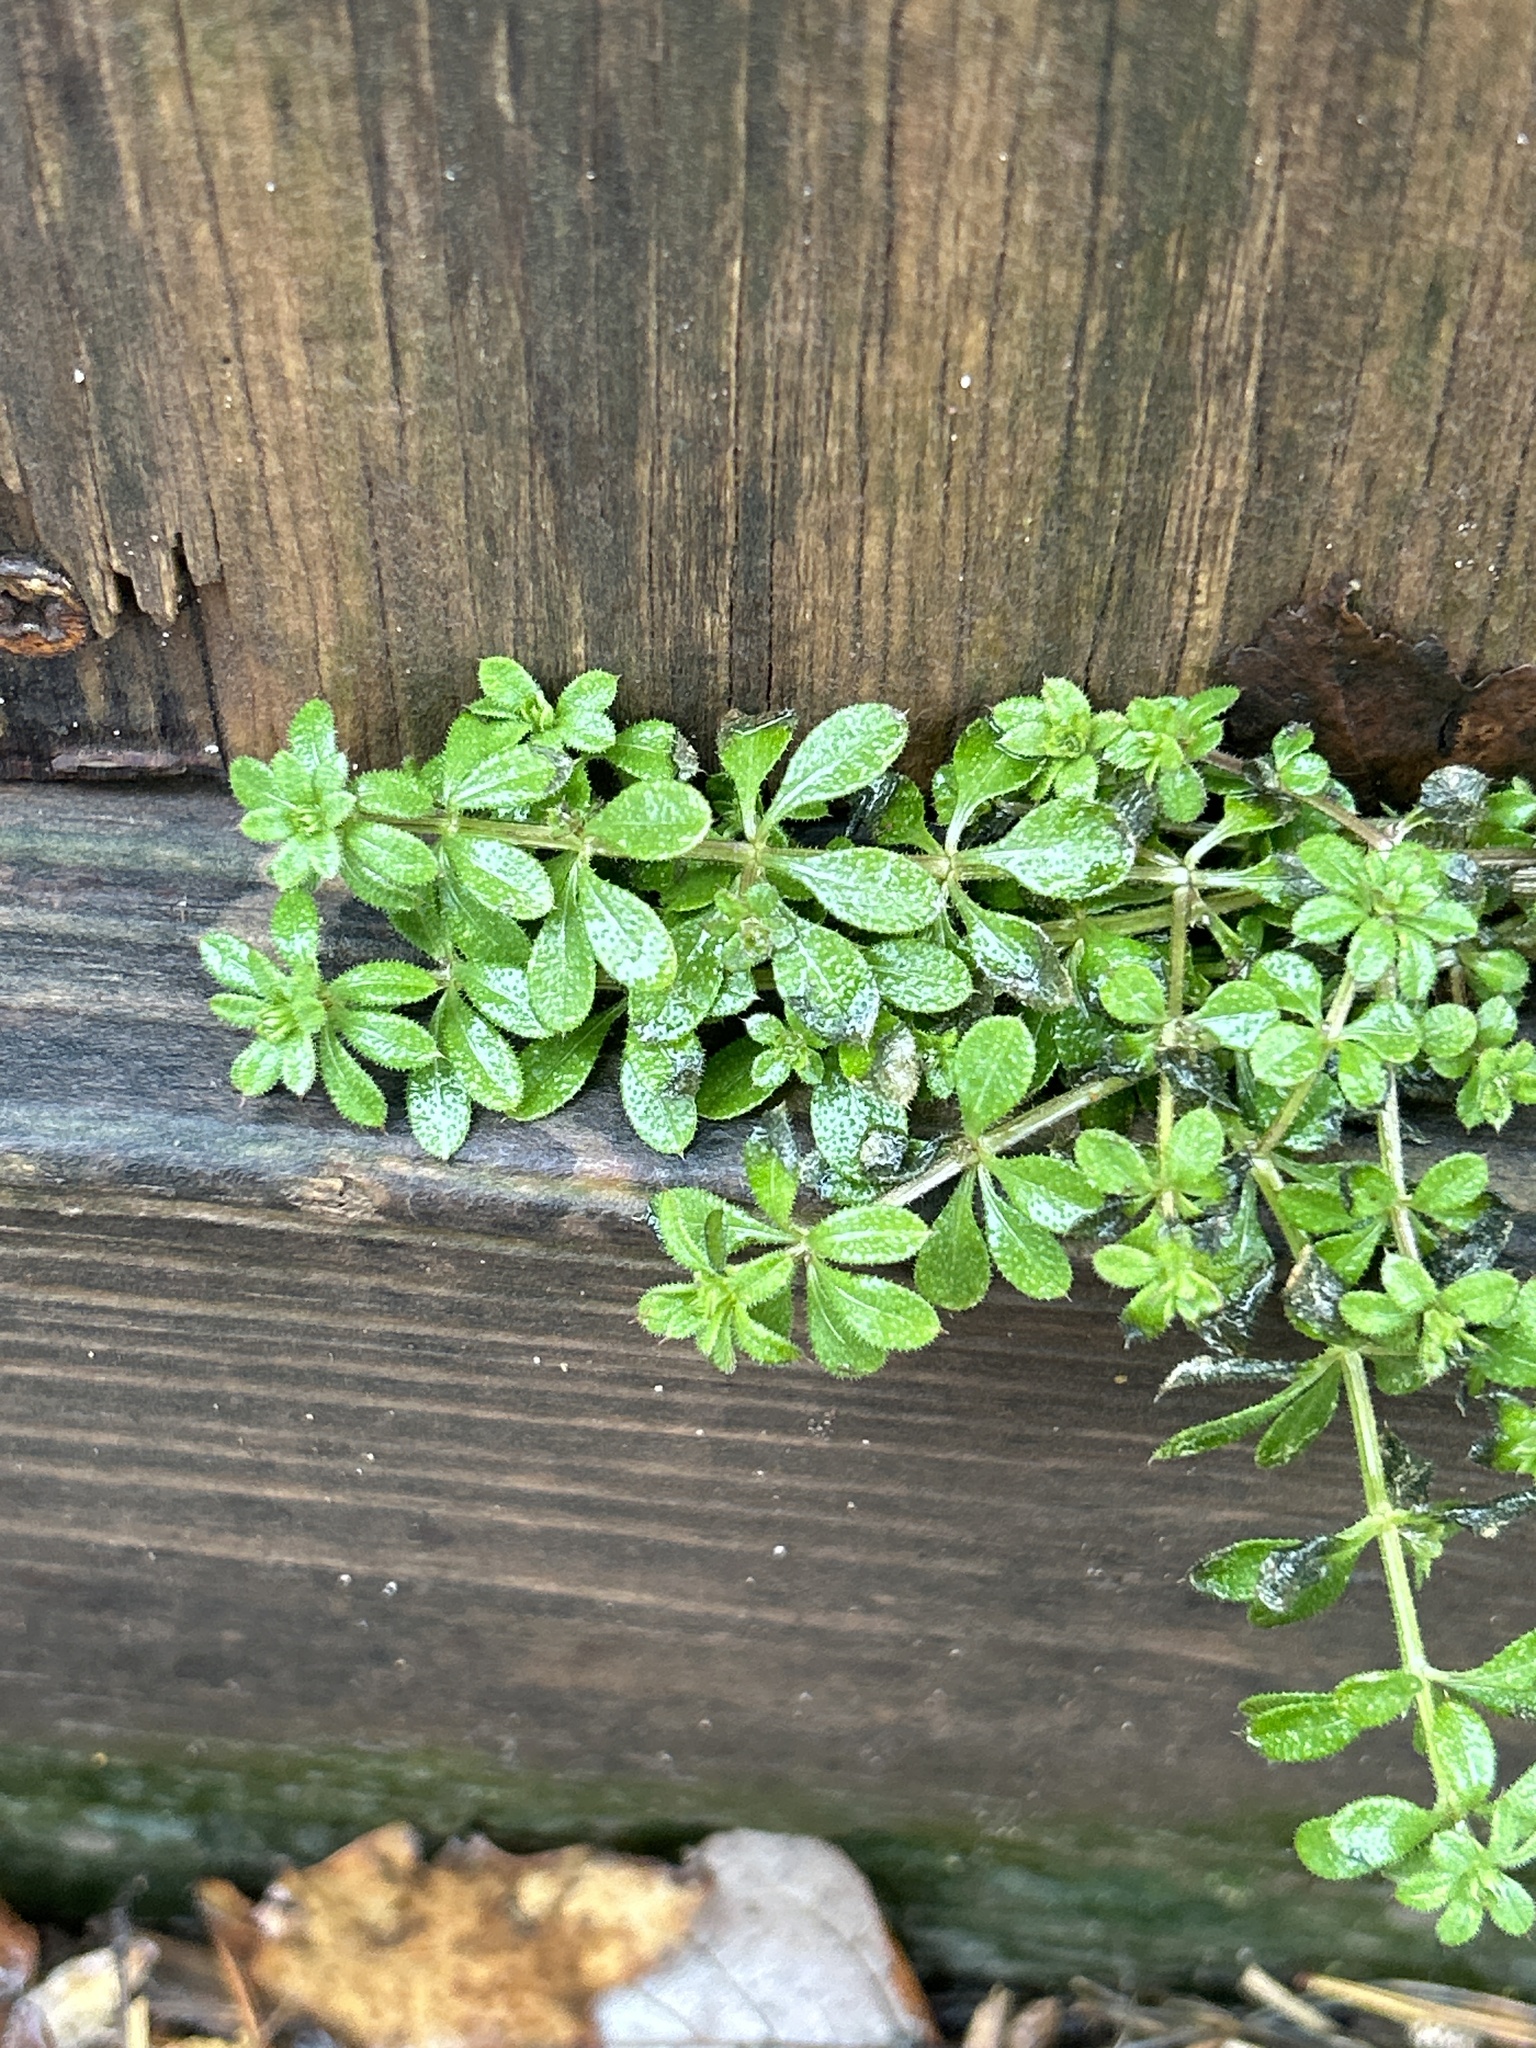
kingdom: Plantae
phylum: Tracheophyta
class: Magnoliopsida
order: Gentianales
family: Rubiaceae
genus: Galium
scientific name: Galium aparine
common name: Cleavers
